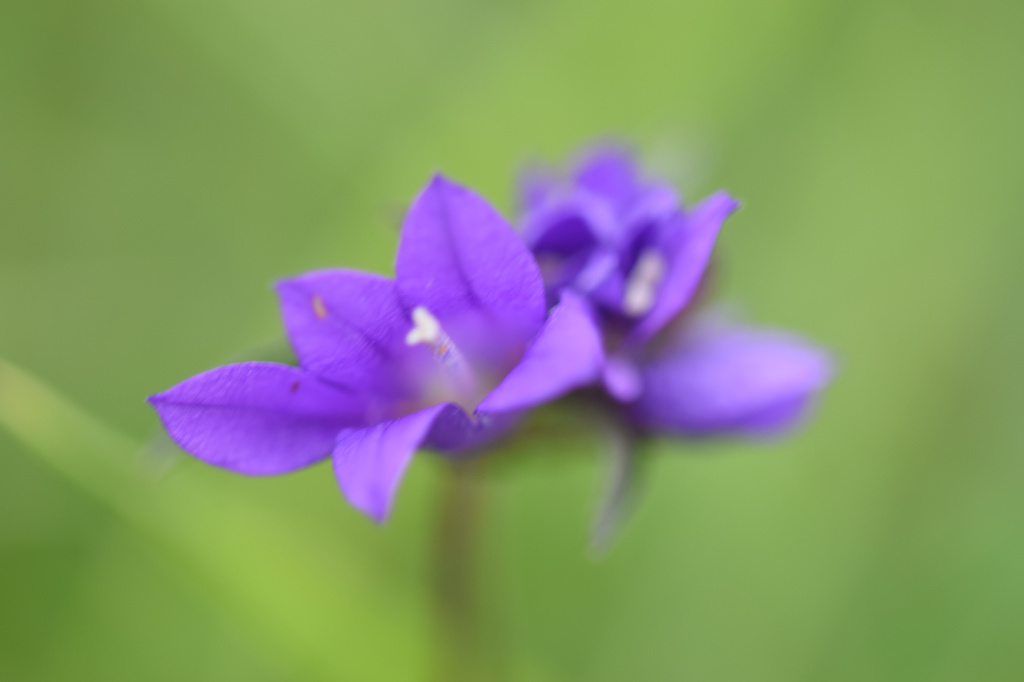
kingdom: Plantae
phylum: Tracheophyta
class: Magnoliopsida
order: Asterales
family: Campanulaceae
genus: Campanula
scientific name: Campanula glomerata
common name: Clustered bellflower
